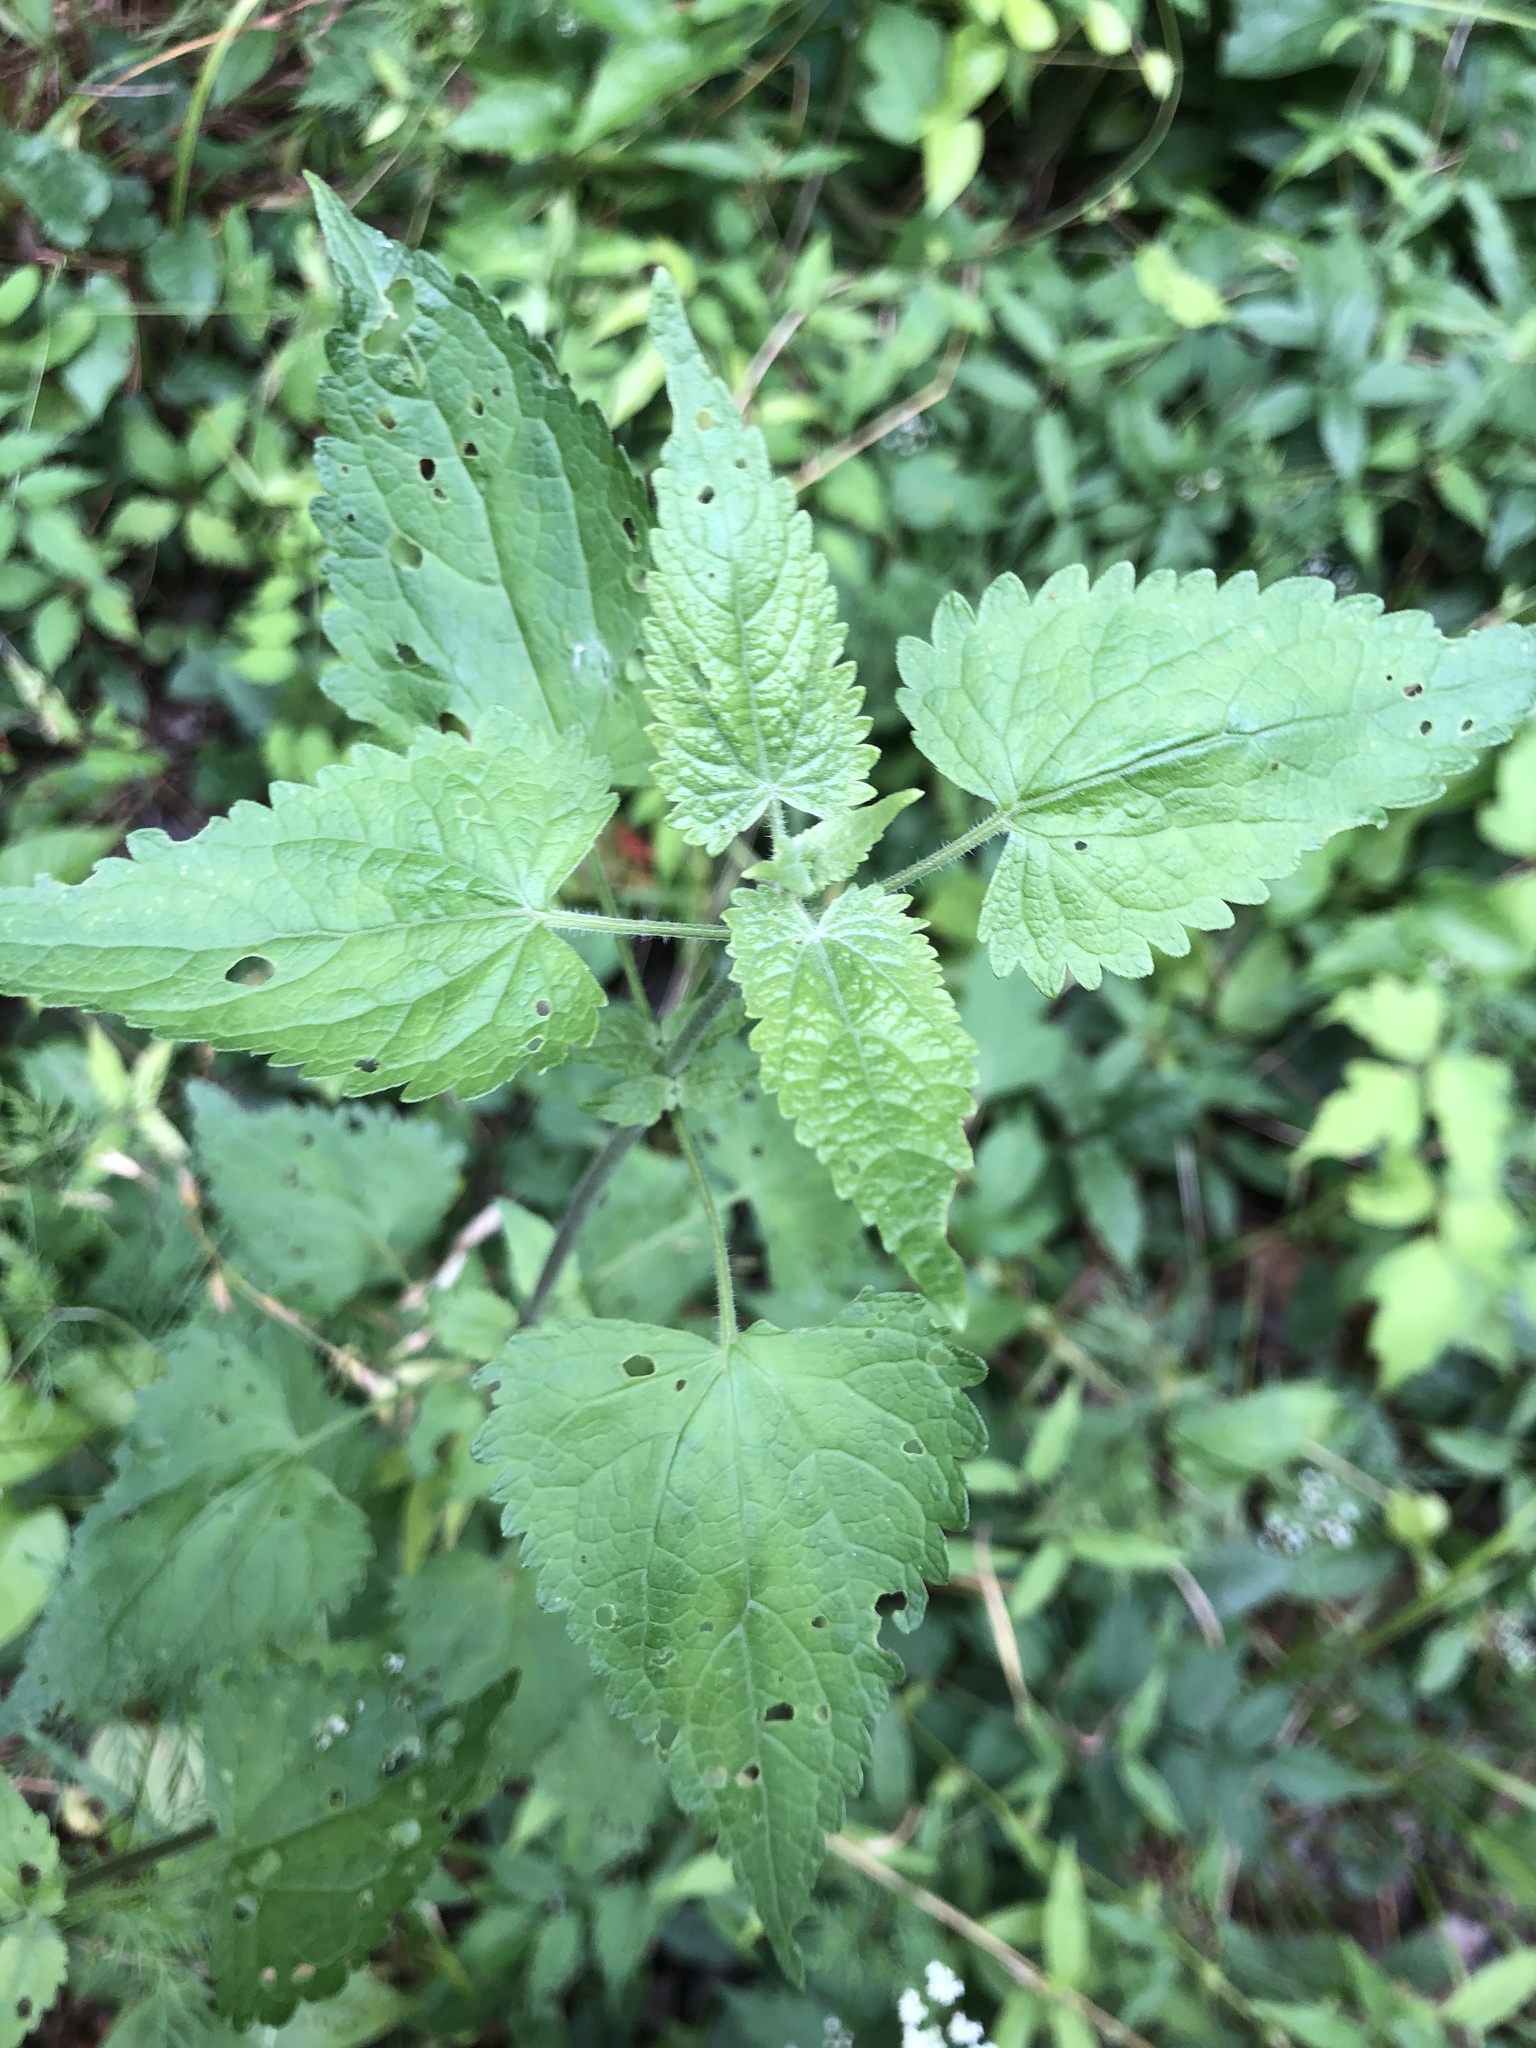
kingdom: Plantae
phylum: Tracheophyta
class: Magnoliopsida
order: Asterales
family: Asteraceae
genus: Fleischmannia
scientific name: Fleischmannia incarnata
